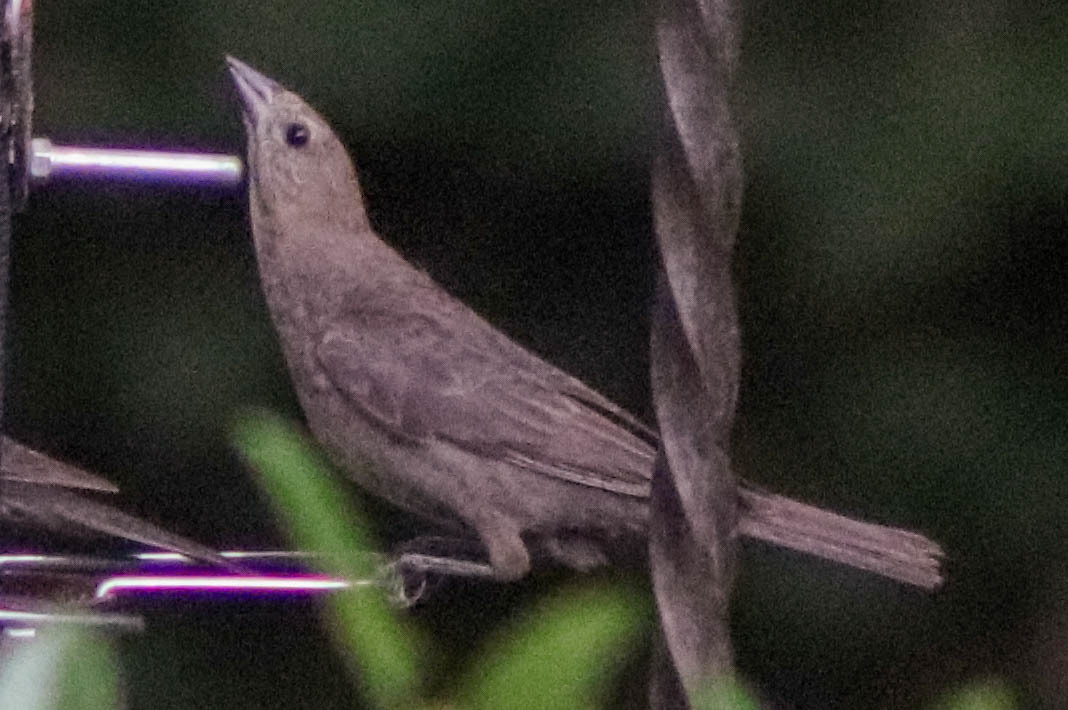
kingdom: Animalia
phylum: Chordata
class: Aves
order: Passeriformes
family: Icteridae
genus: Molothrus
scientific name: Molothrus ater
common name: Brown-headed cowbird
